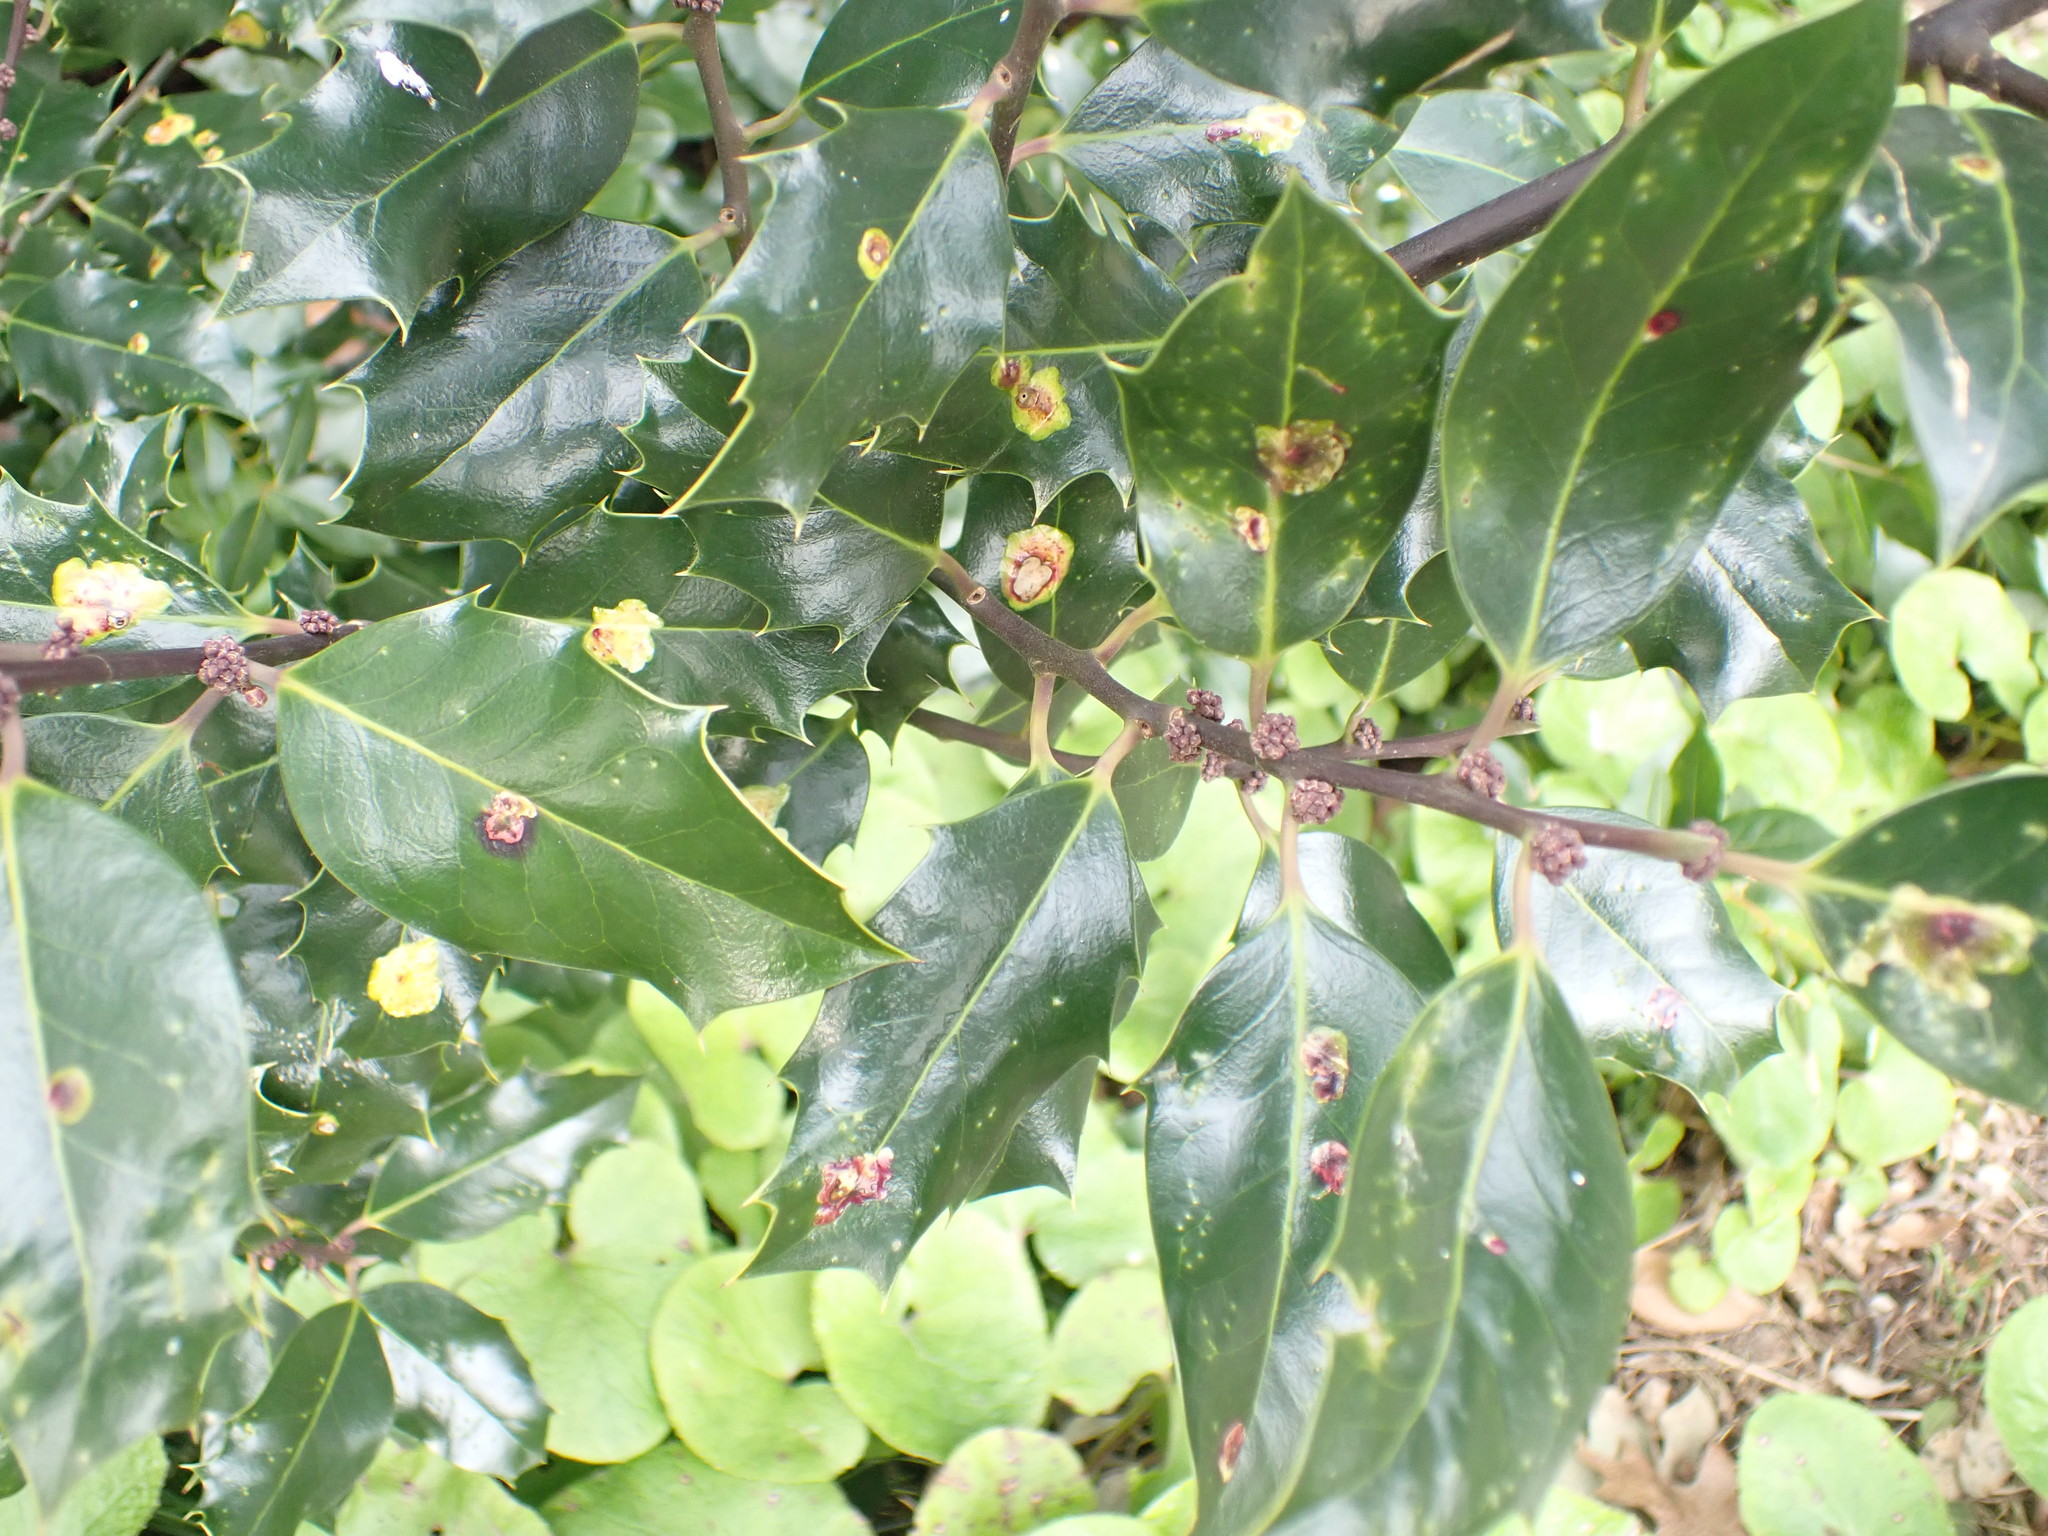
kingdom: Plantae
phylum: Tracheophyta
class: Magnoliopsida
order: Aquifoliales
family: Aquifoliaceae
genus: Ilex
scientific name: Ilex aquifolium
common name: English holly
